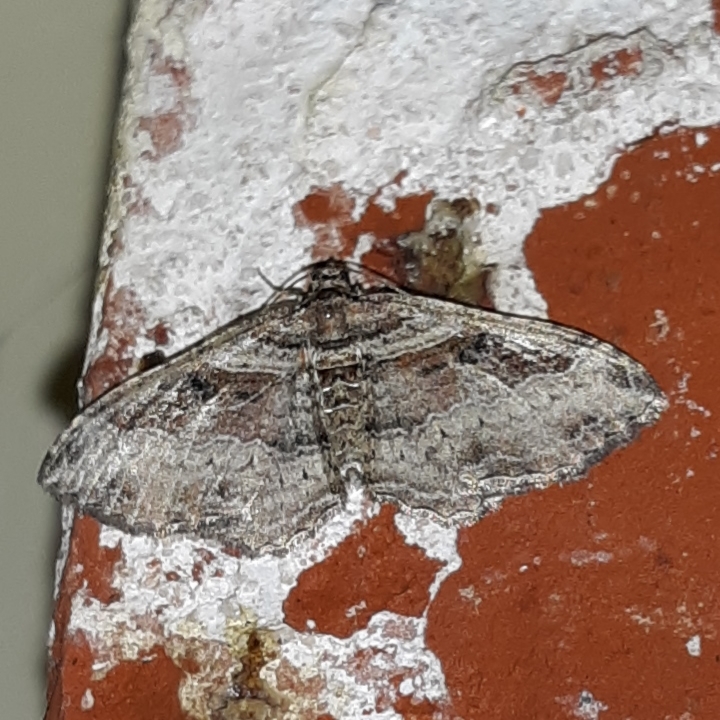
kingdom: Animalia
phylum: Arthropoda
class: Insecta
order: Lepidoptera
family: Geometridae
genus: Costaconvexa
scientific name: Costaconvexa centrostrigaria
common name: Bent-line carpet
